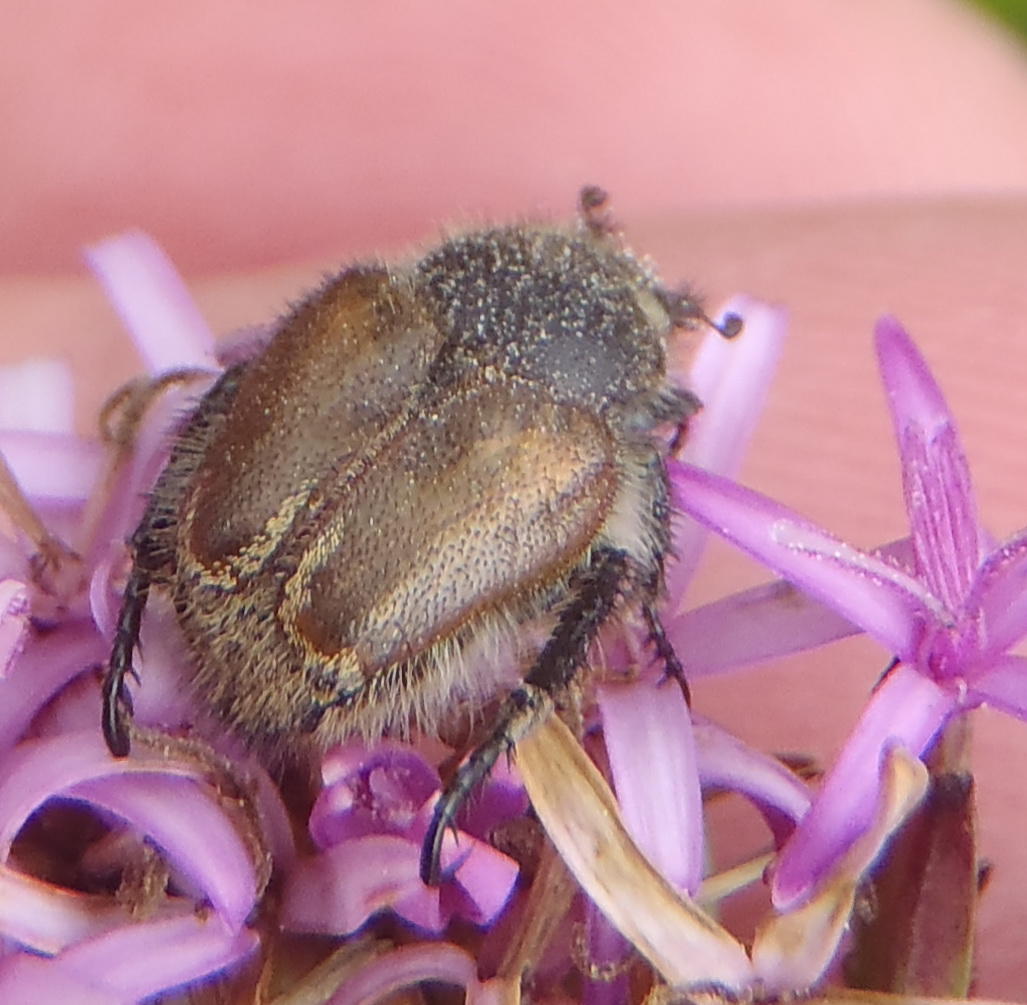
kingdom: Animalia
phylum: Arthropoda
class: Insecta
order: Coleoptera
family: Scarabaeidae
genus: Khoina
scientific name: Khoina bilateralis
